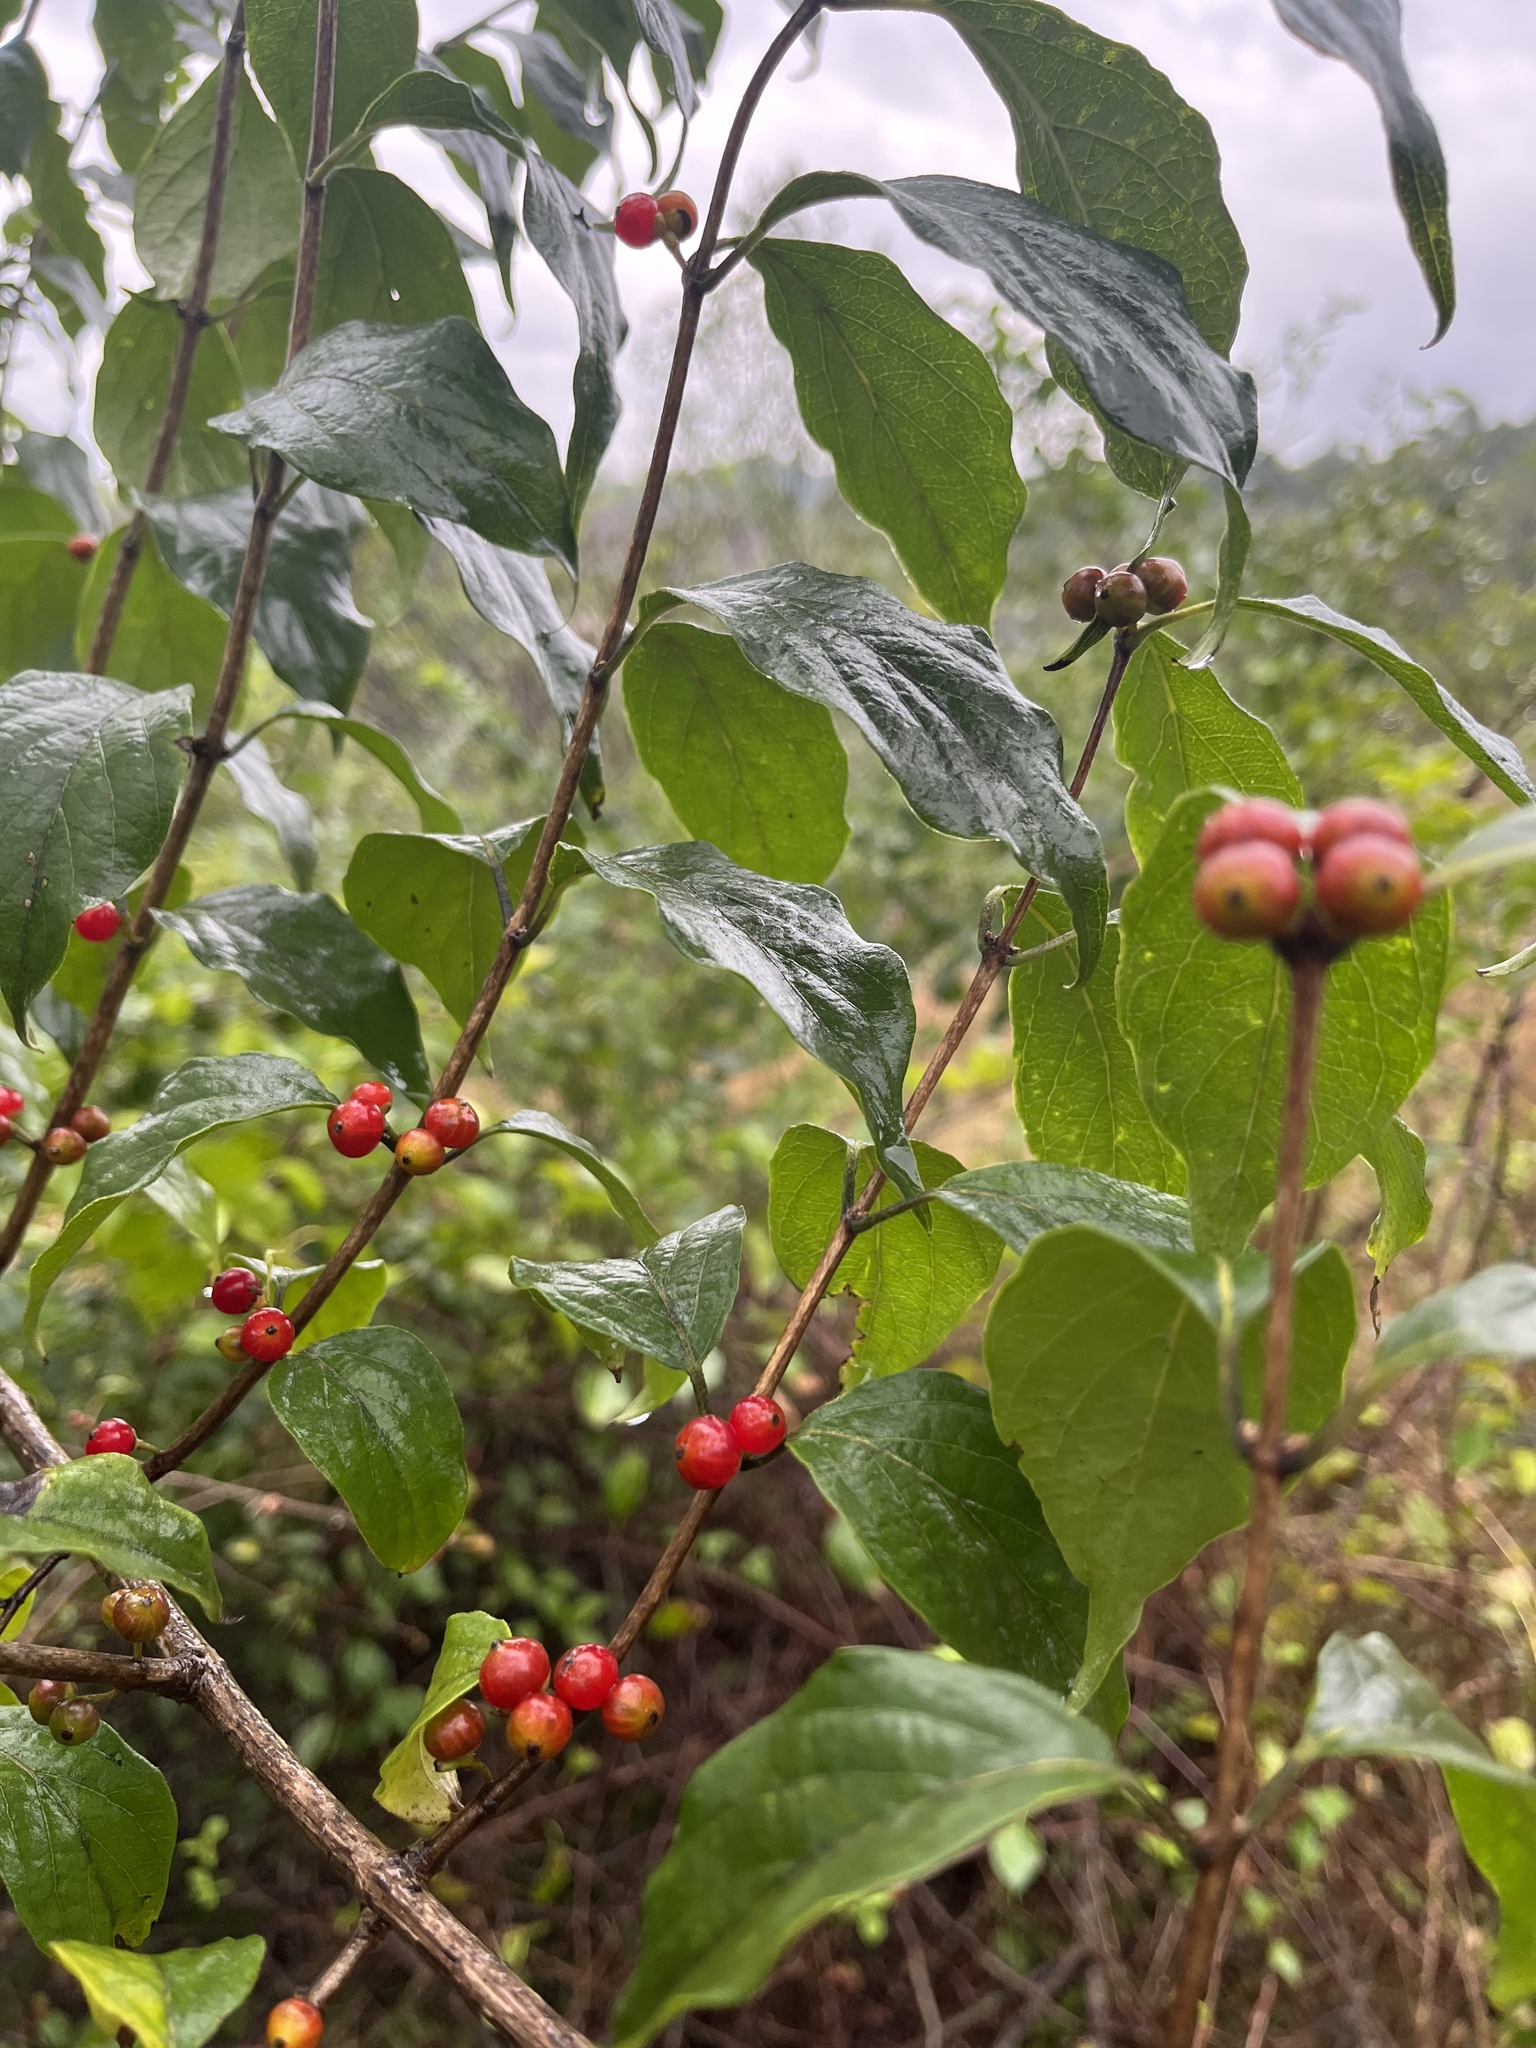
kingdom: Plantae
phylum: Tracheophyta
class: Magnoliopsida
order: Dipsacales
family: Caprifoliaceae
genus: Lonicera
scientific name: Lonicera maackii
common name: Amur honeysuckle
